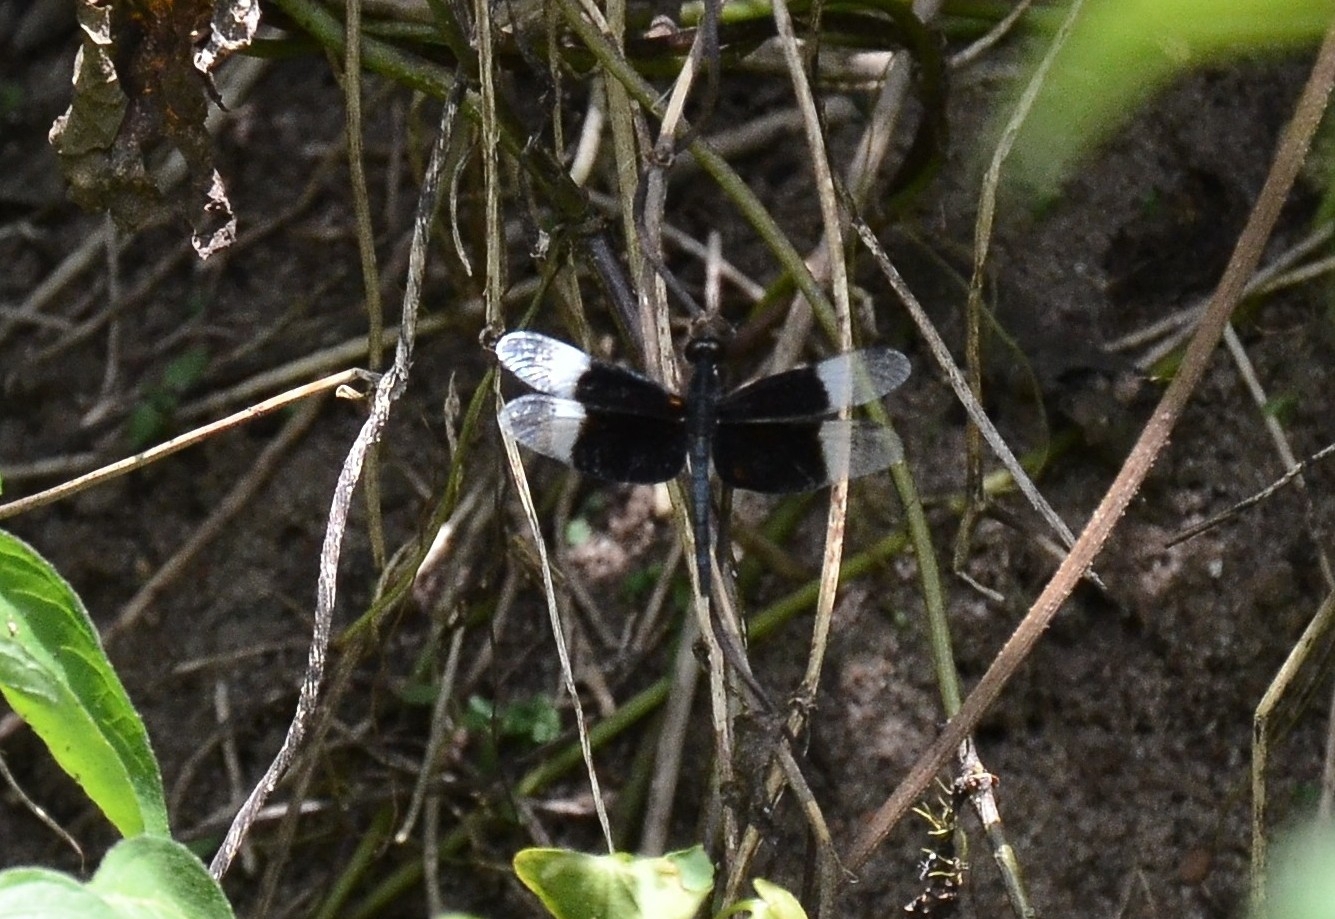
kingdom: Animalia
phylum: Arthropoda
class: Insecta
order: Odonata
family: Libellulidae
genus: Neurothemis
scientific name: Neurothemis tullia
